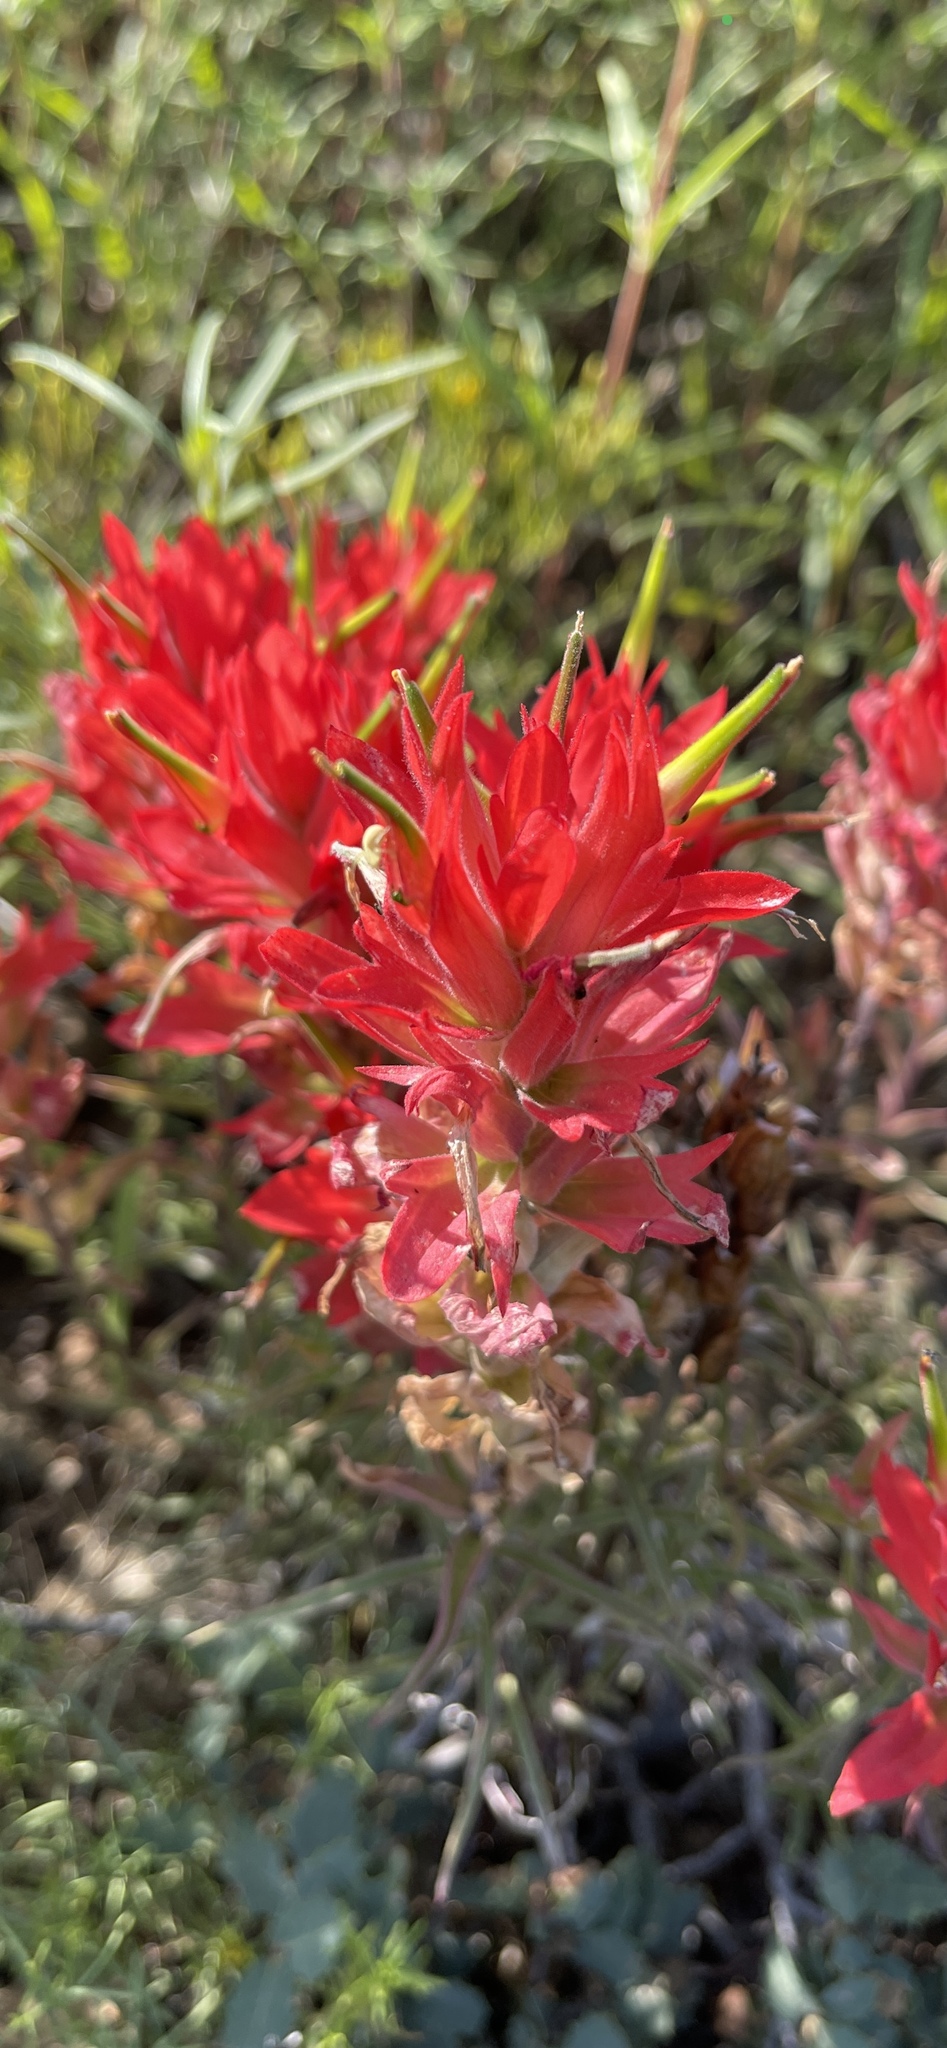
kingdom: Plantae
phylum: Tracheophyta
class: Magnoliopsida
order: Lamiales
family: Orobanchaceae
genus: Castilleja
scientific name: Castilleja integra
